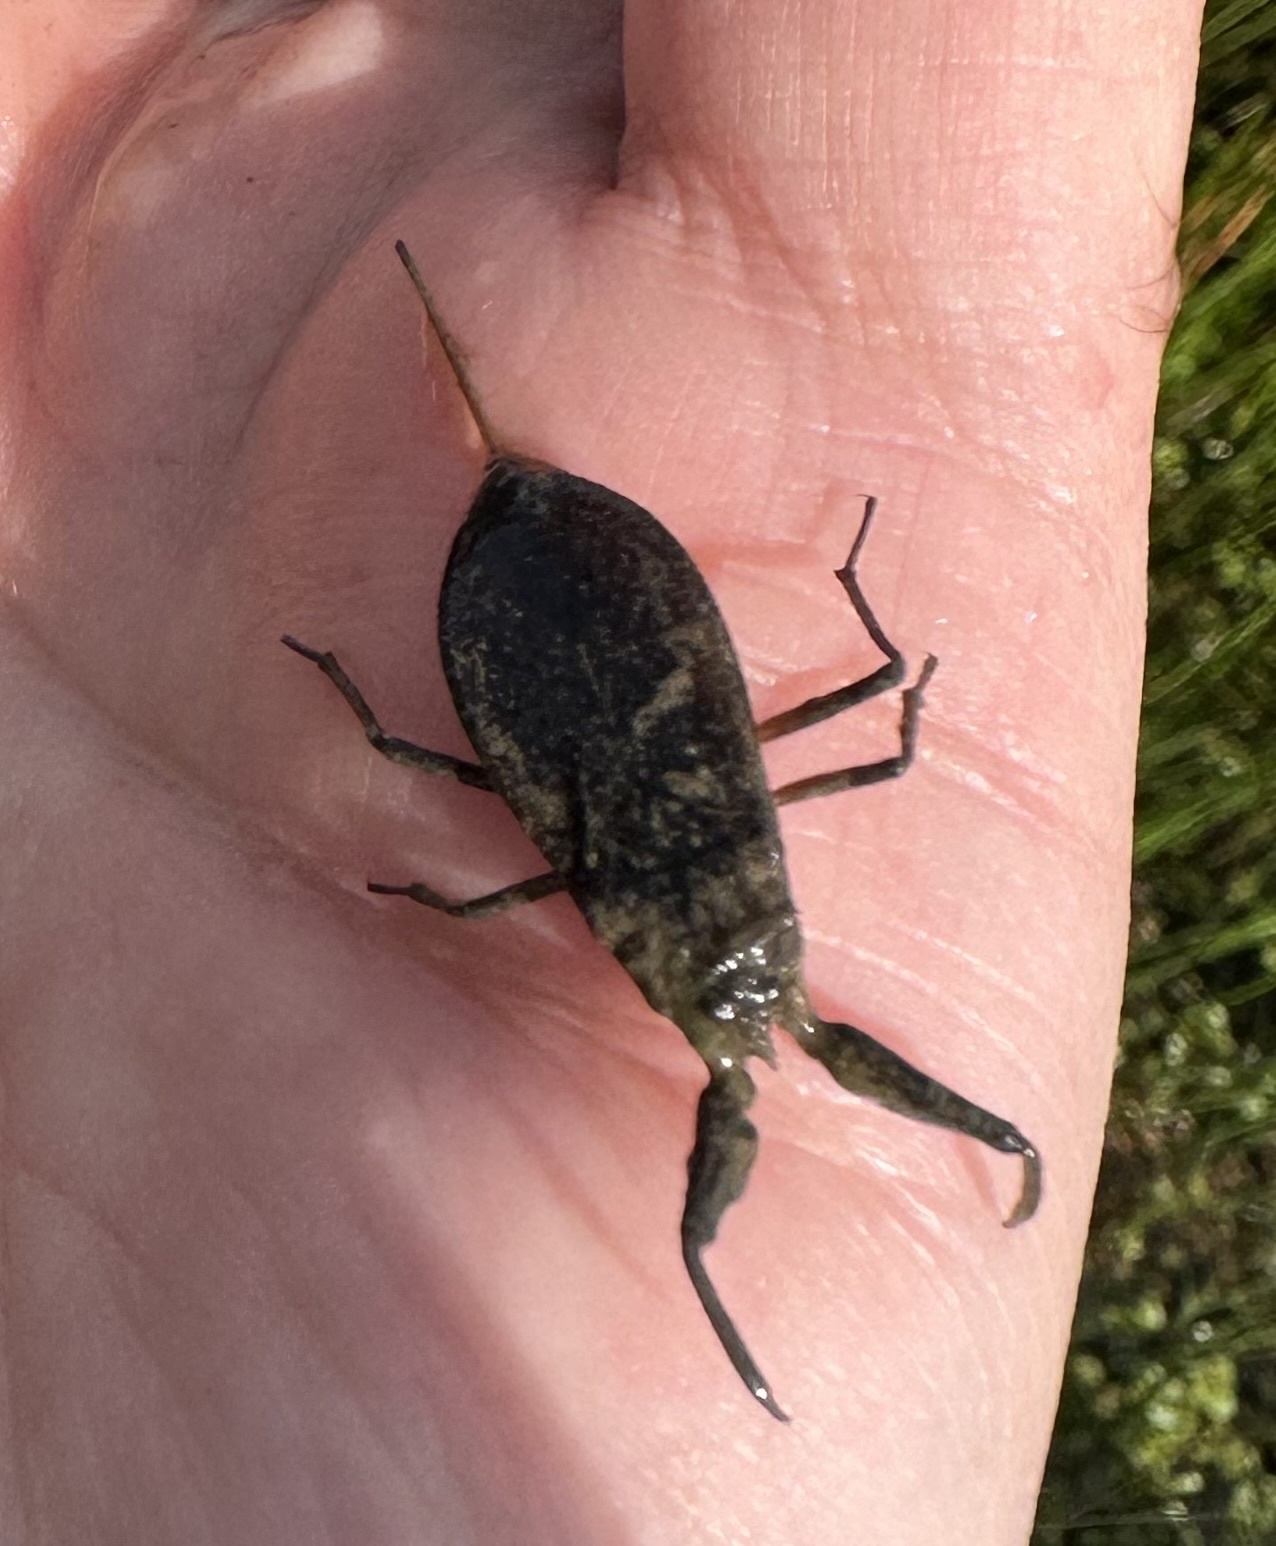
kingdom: Animalia
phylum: Arthropoda
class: Insecta
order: Hemiptera
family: Nepidae
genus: Nepa
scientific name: Nepa cinerea
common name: Water scorpion
